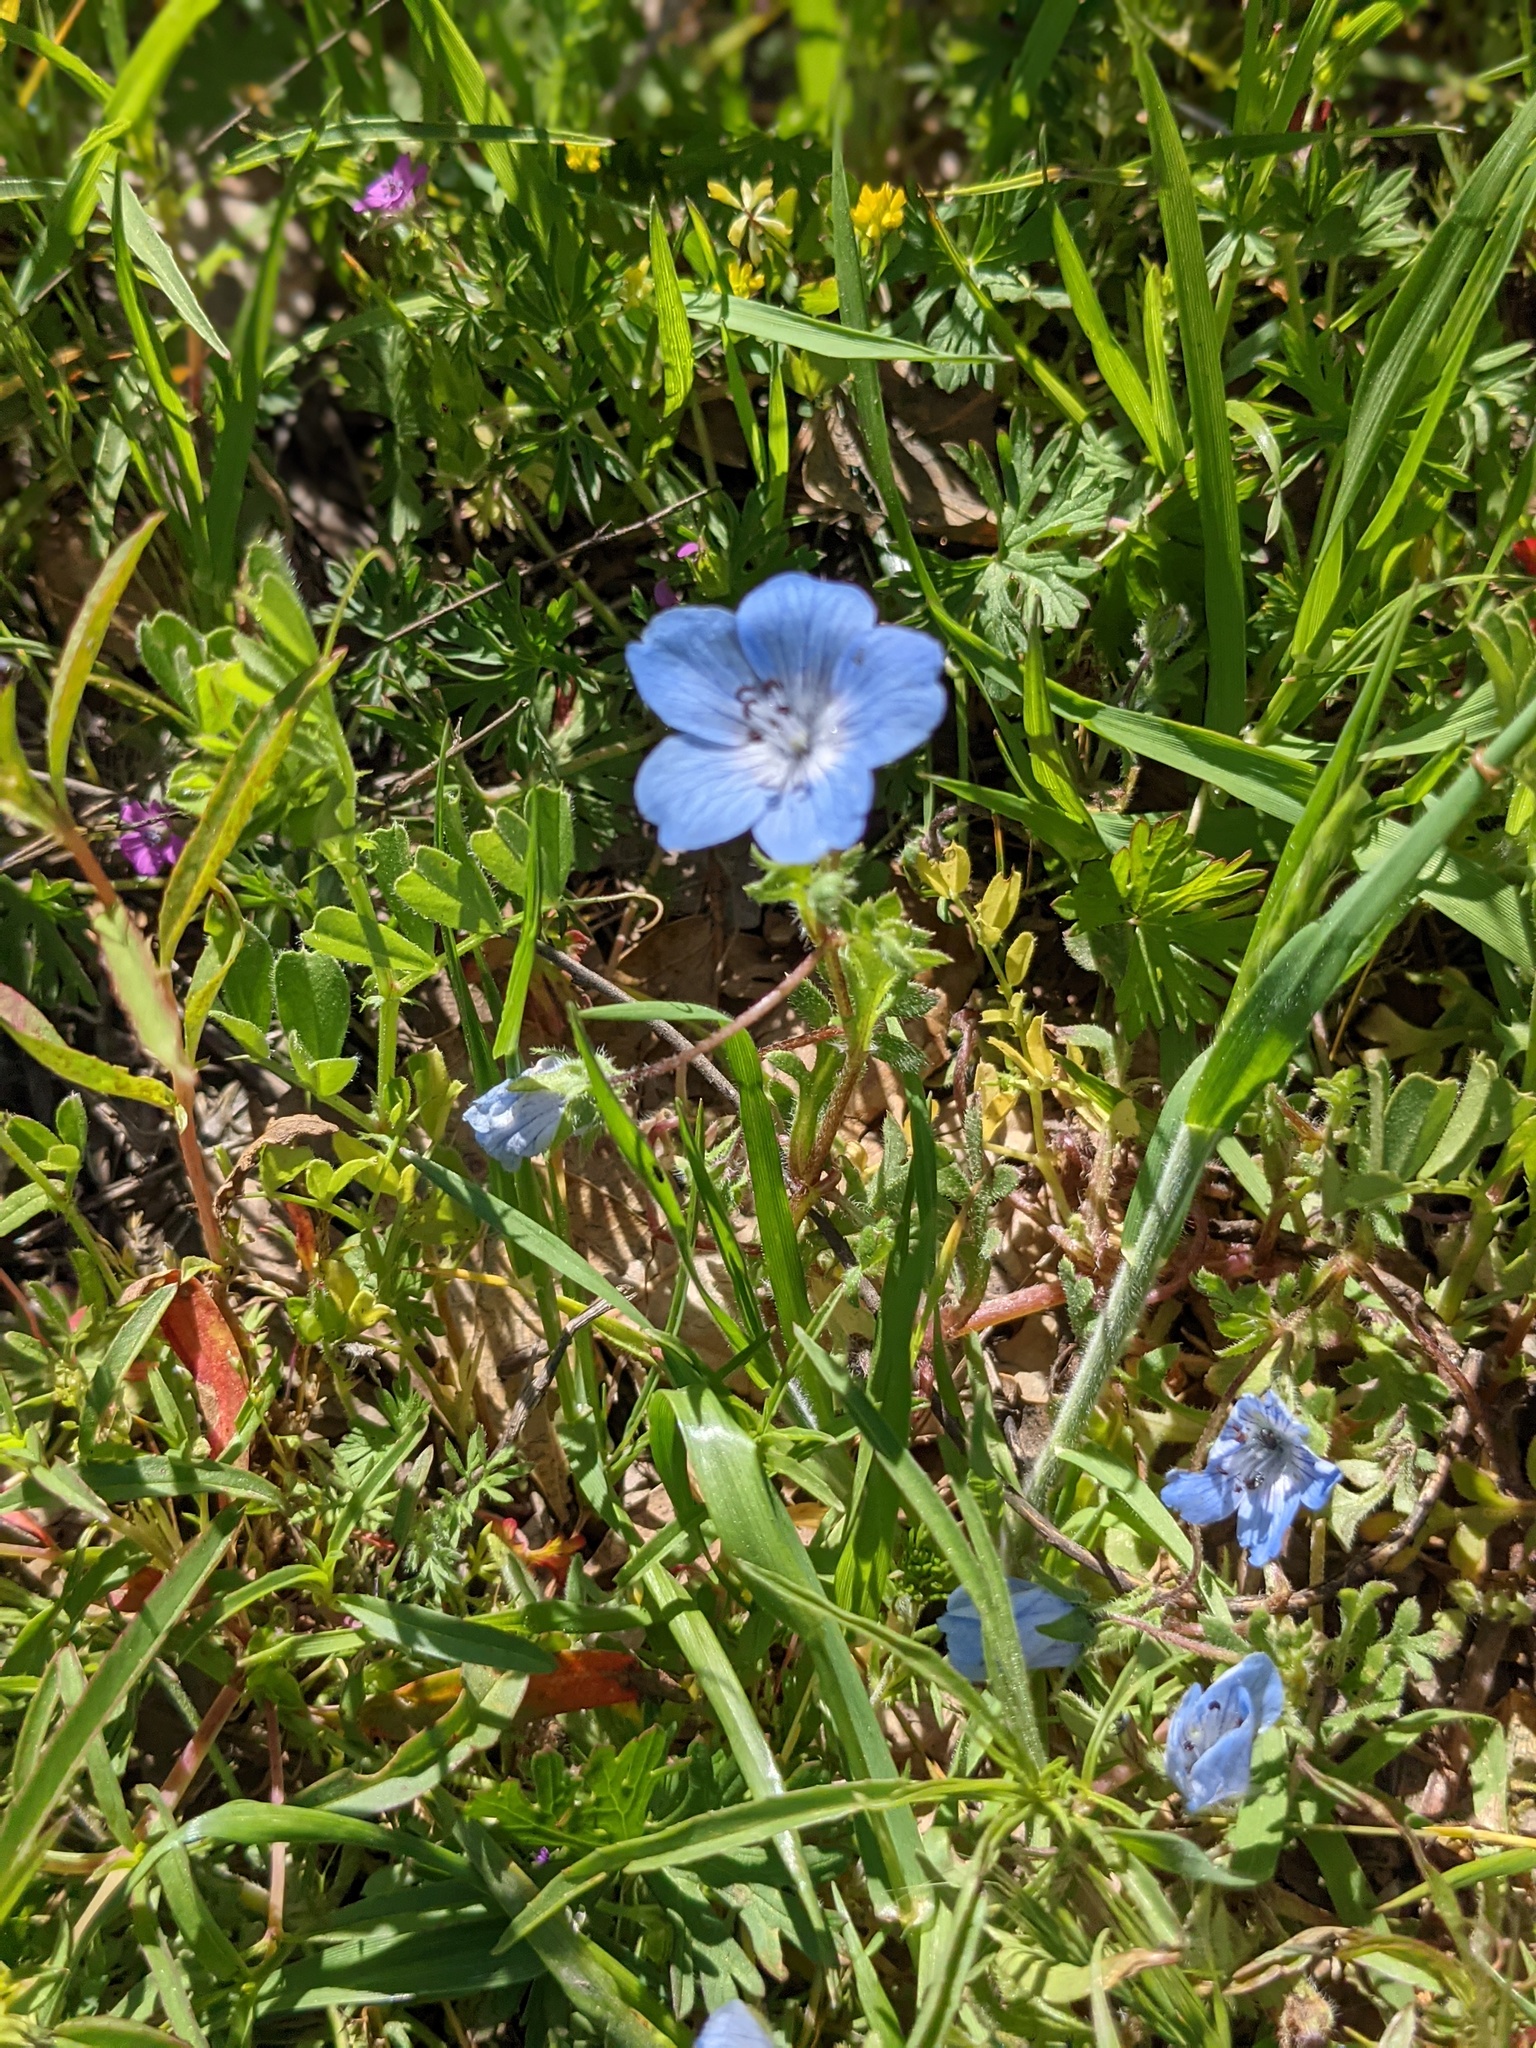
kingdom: Plantae
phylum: Tracheophyta
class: Magnoliopsida
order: Boraginales
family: Hydrophyllaceae
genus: Nemophila
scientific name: Nemophila menziesii
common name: Baby's-blue-eyes
